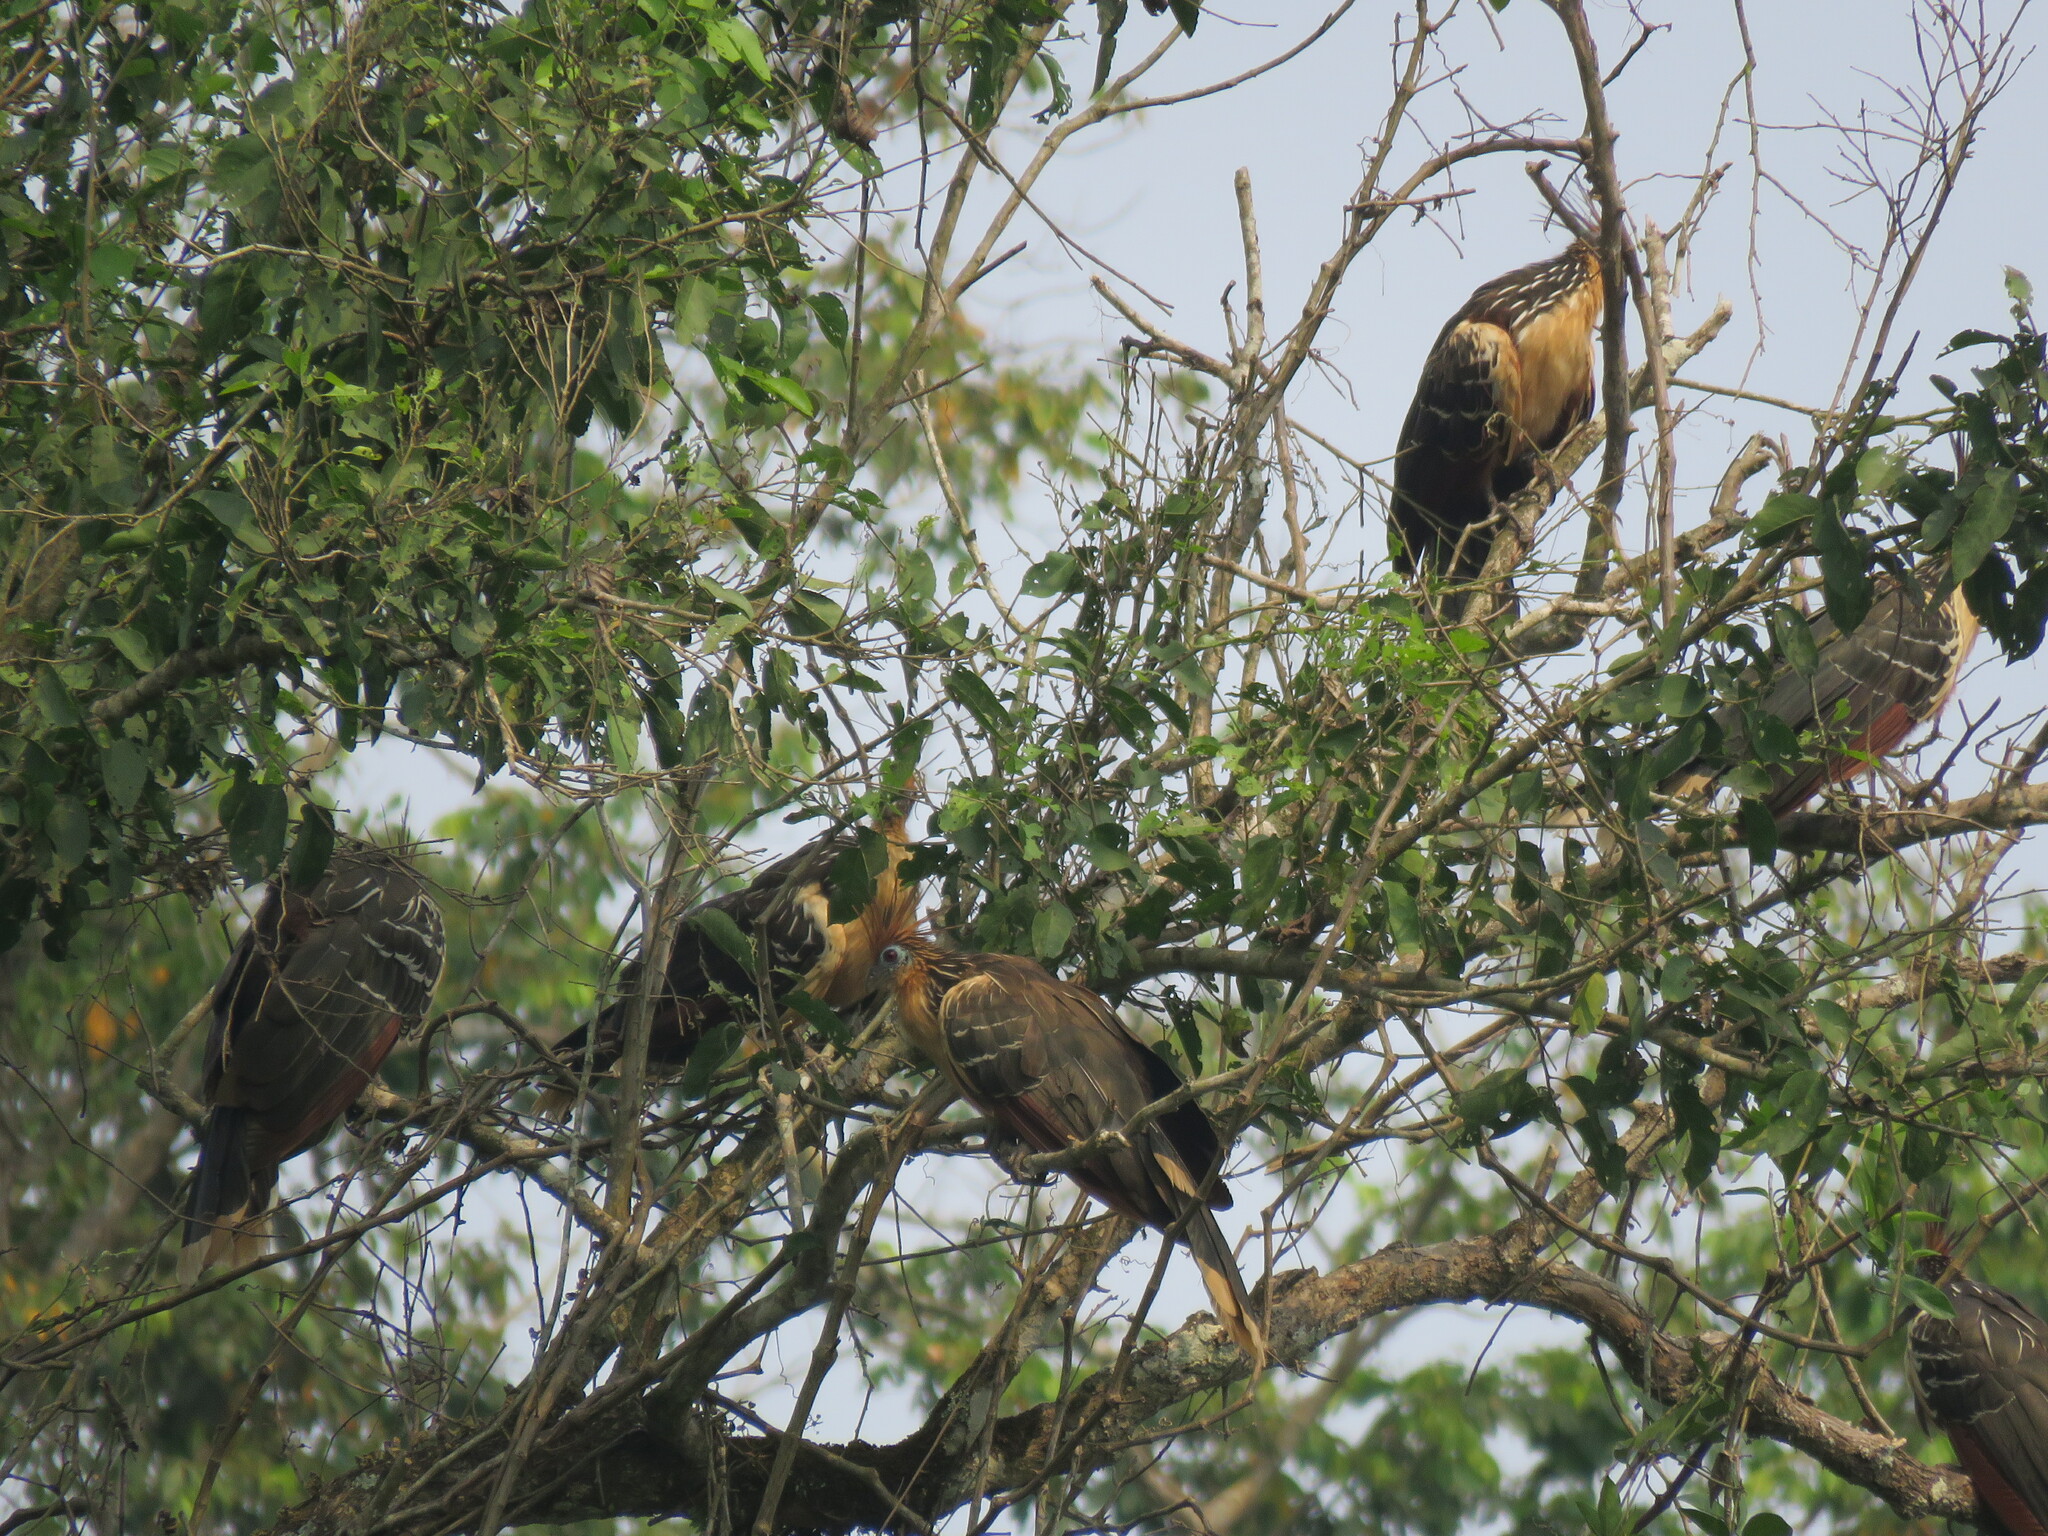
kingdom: Animalia
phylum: Chordata
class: Aves
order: Opisthocomiformes
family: Opisthocomidae
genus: Opisthocomus
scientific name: Opisthocomus hoazin
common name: Hoatzin
